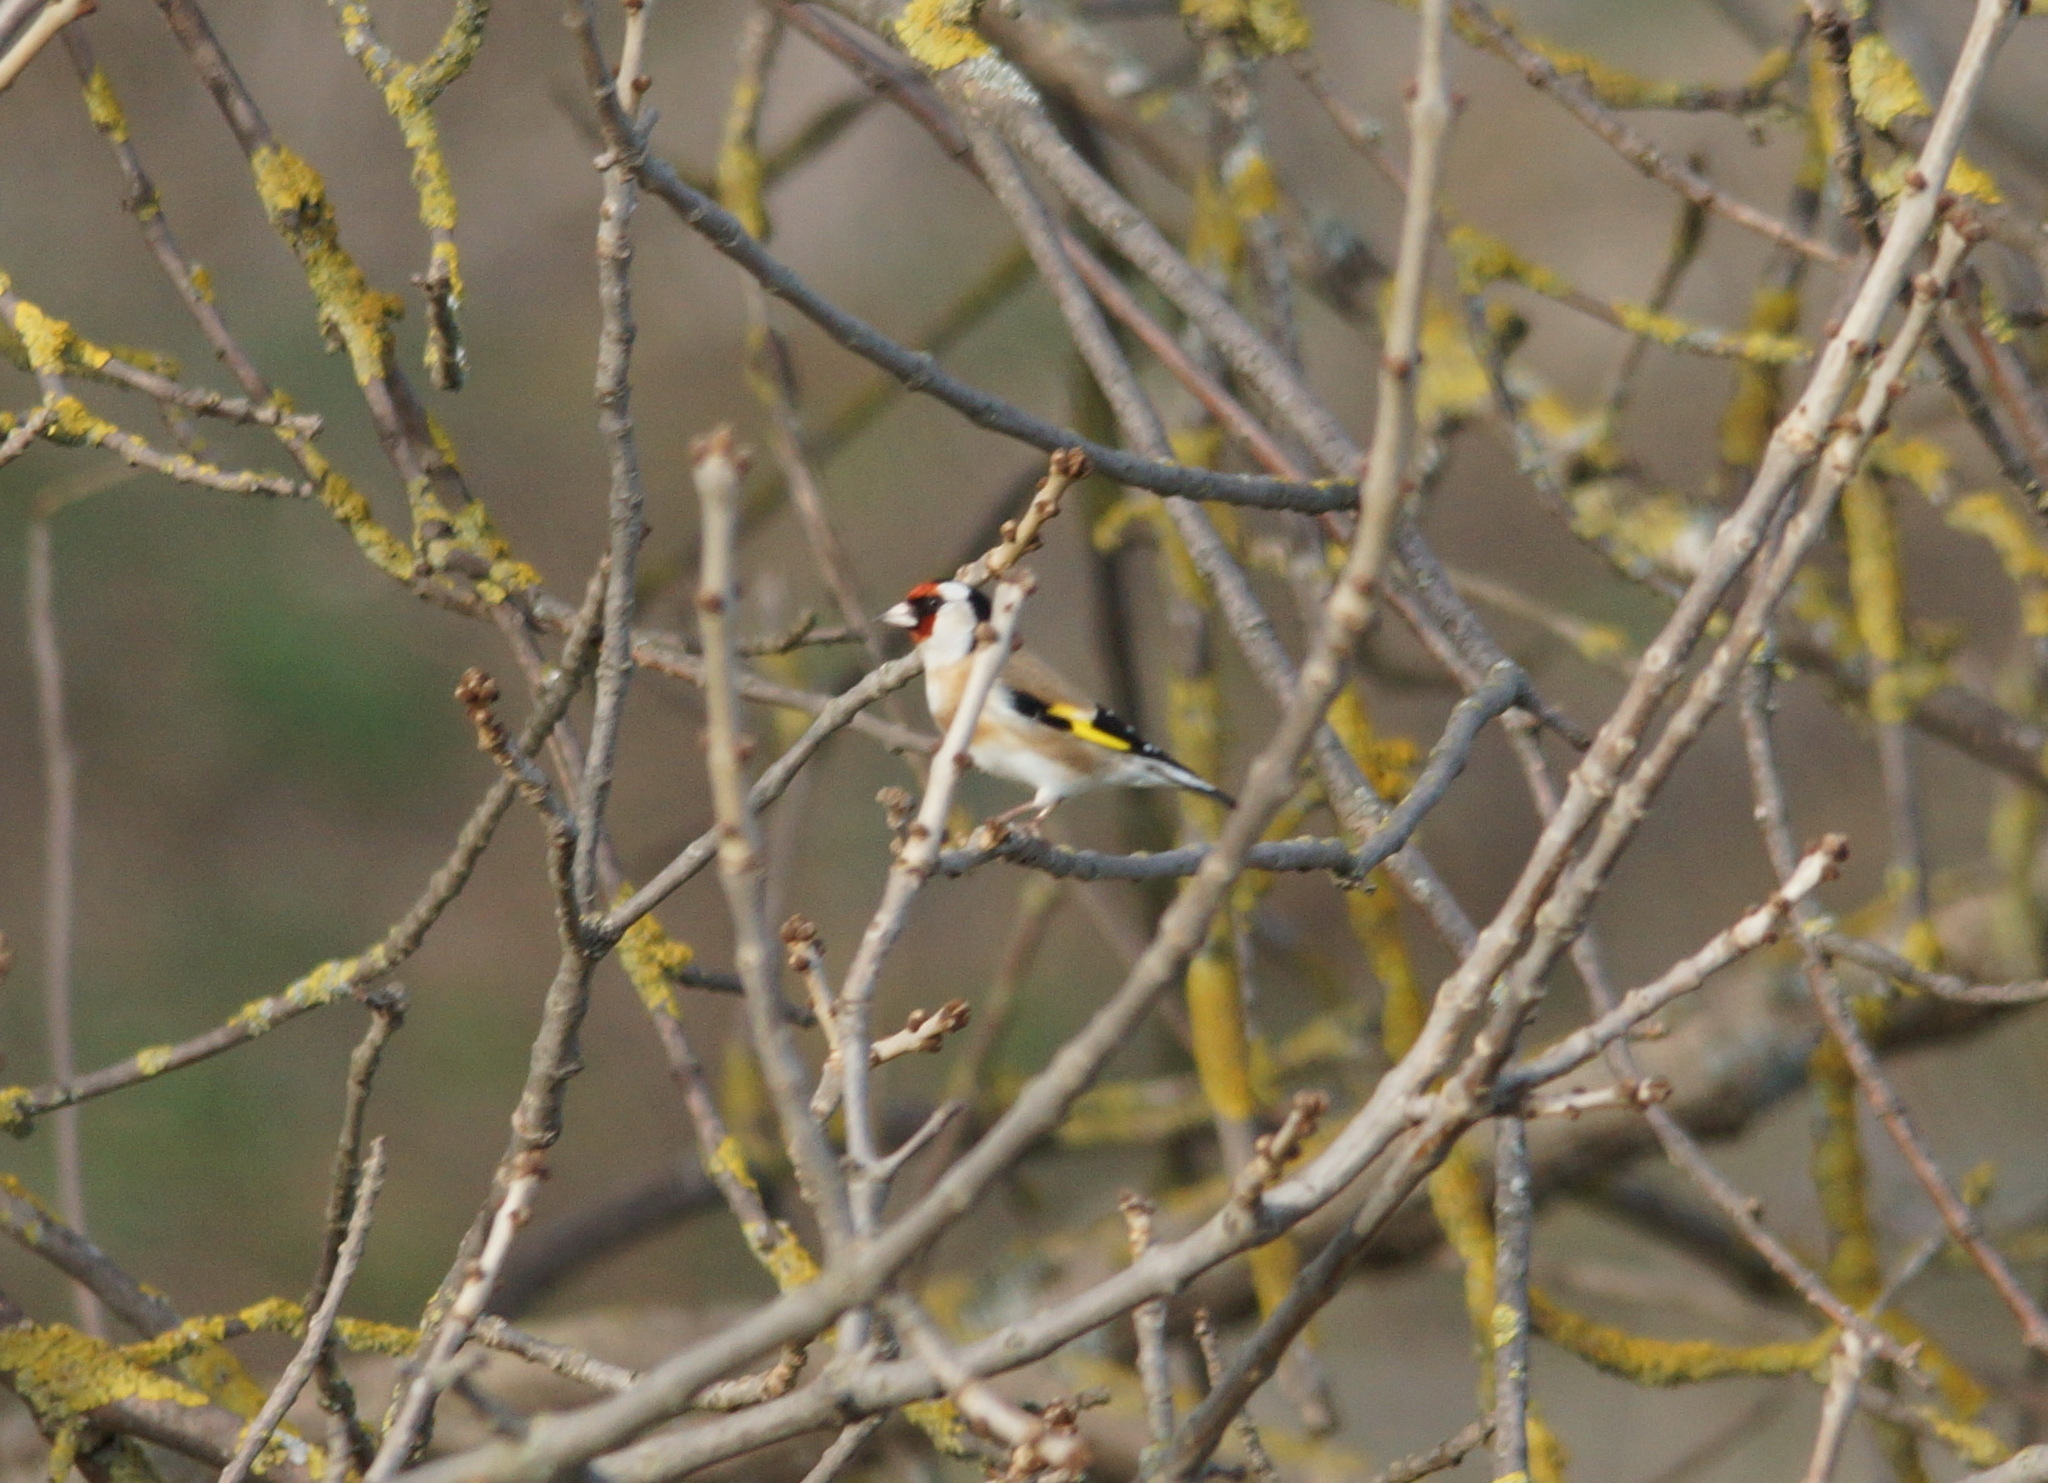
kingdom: Animalia
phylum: Chordata
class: Aves
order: Passeriformes
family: Fringillidae
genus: Carduelis
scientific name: Carduelis carduelis
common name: European goldfinch
